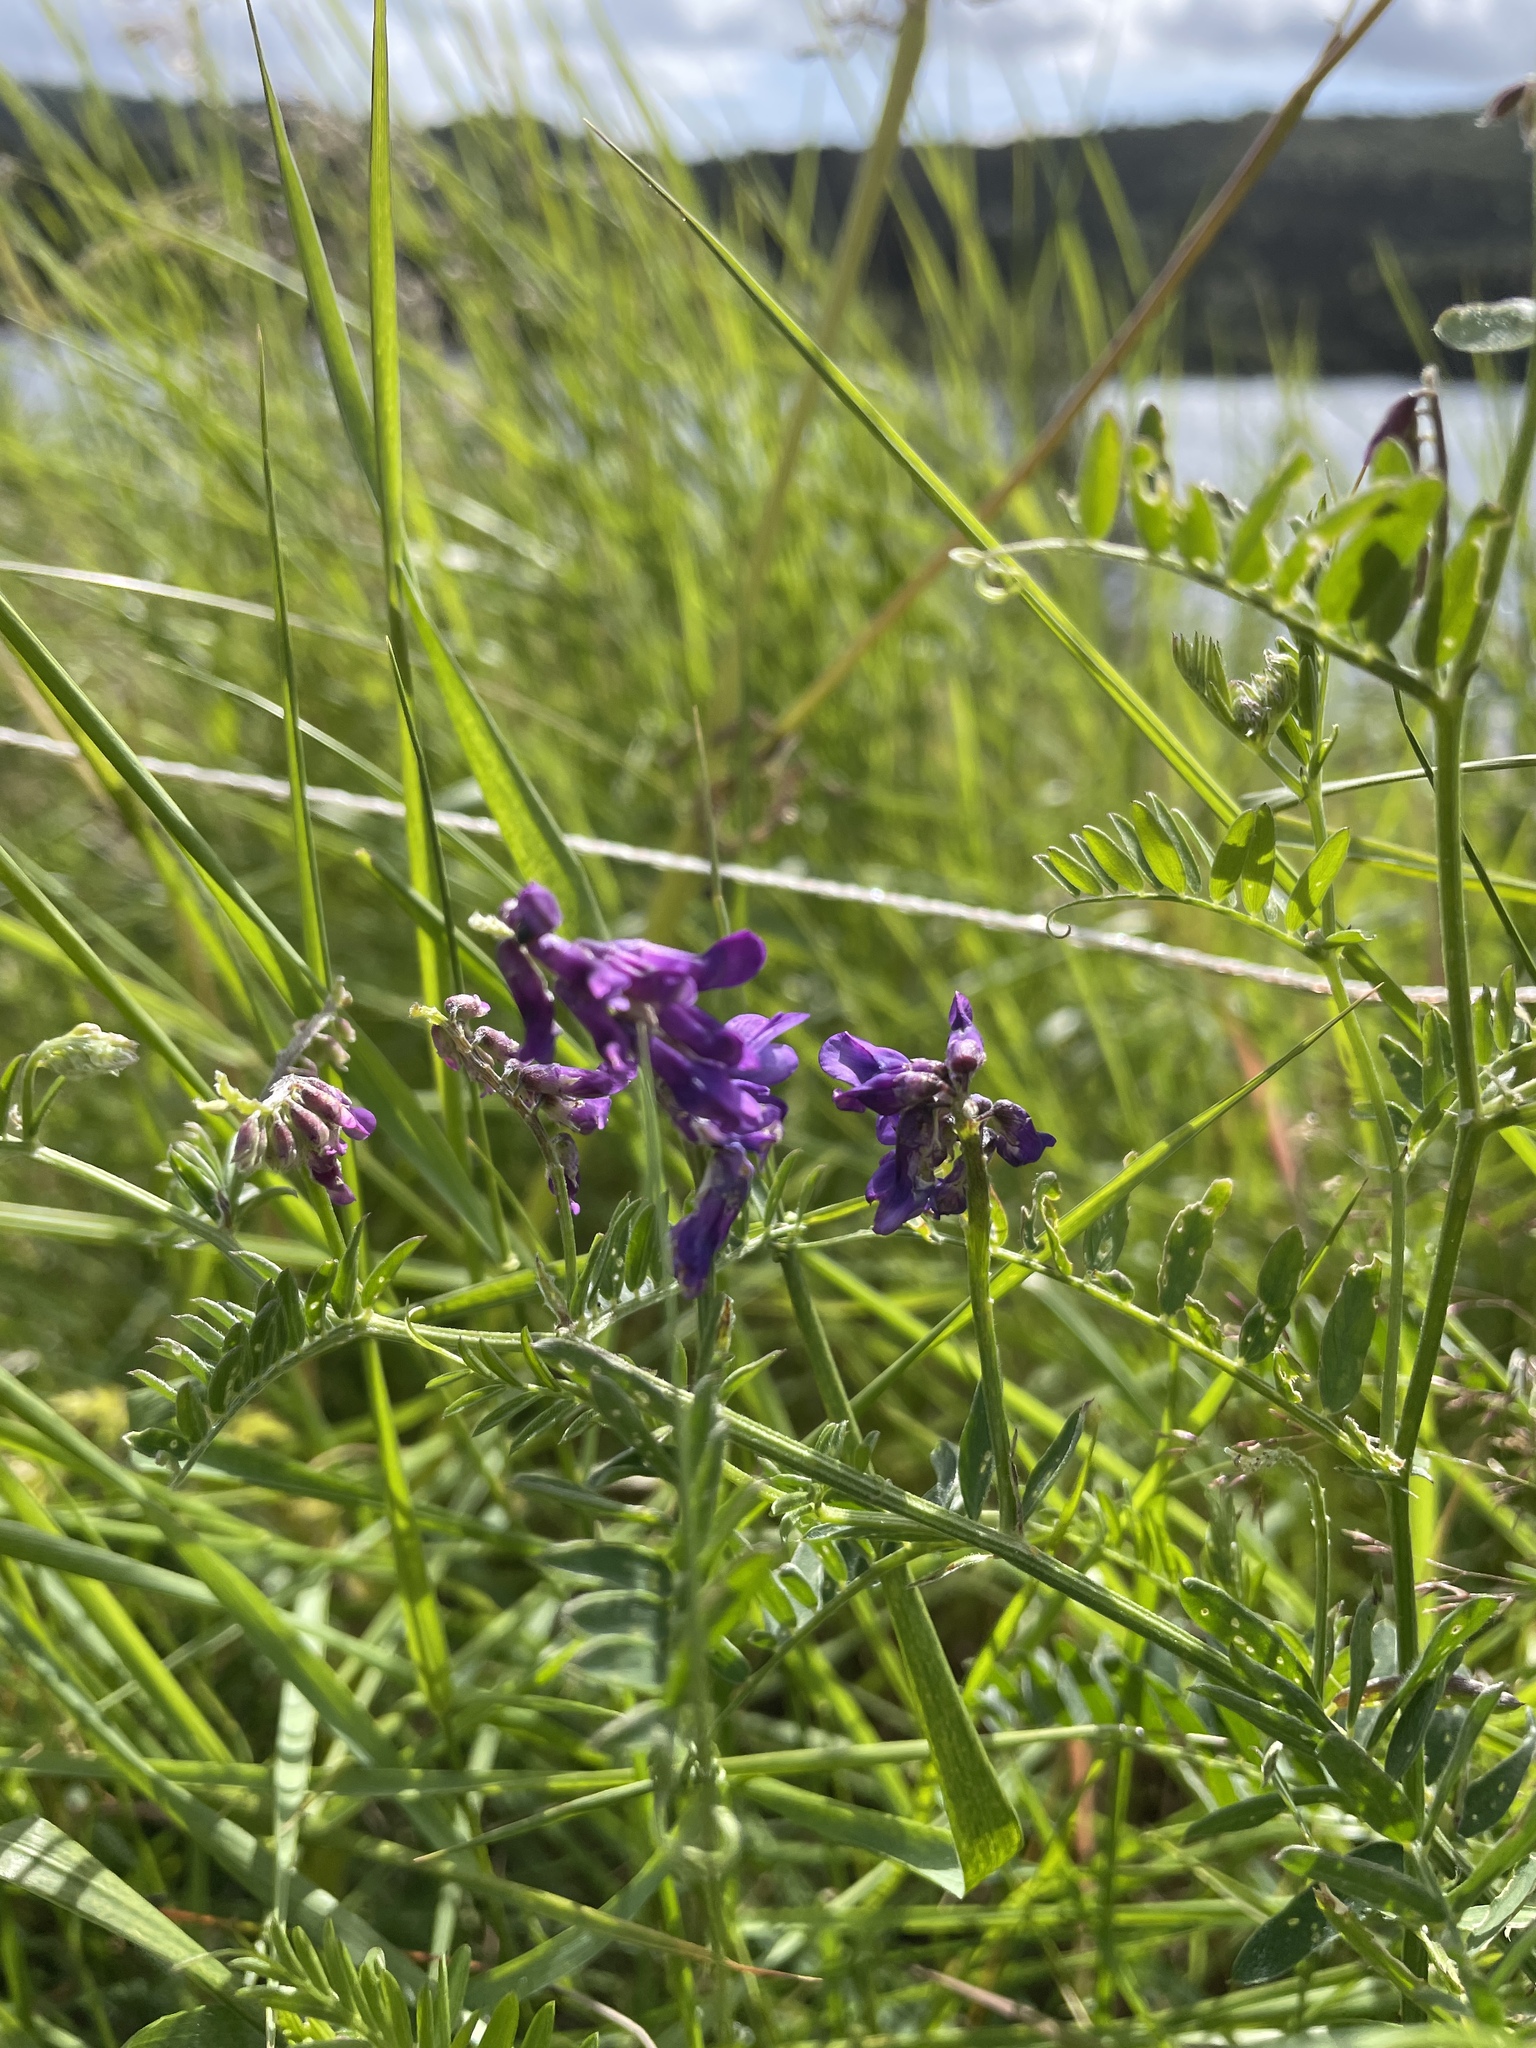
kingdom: Plantae
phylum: Tracheophyta
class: Magnoliopsida
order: Fabales
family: Fabaceae
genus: Vicia
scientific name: Vicia cracca
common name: Bird vetch
